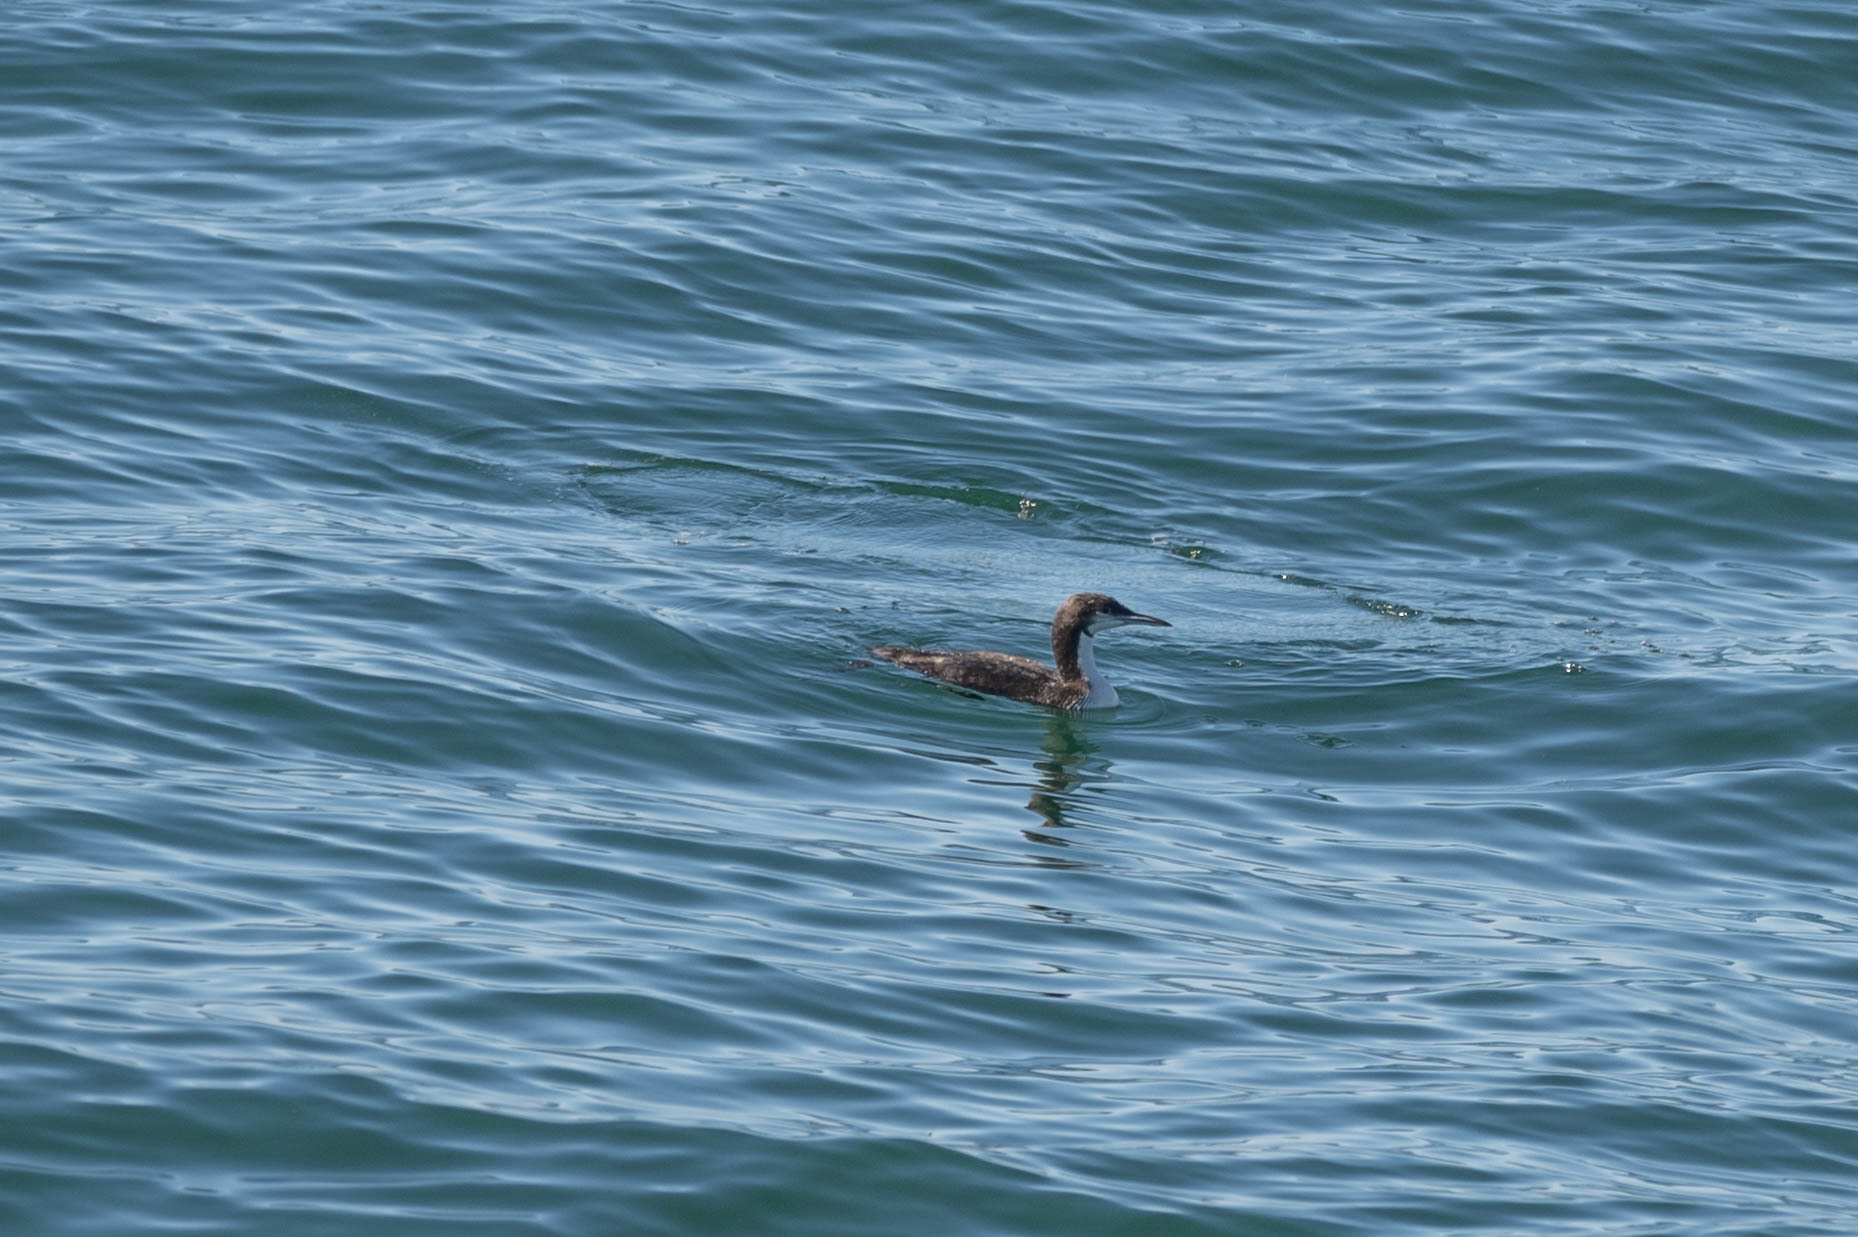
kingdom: Animalia
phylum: Chordata
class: Aves
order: Gaviiformes
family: Gaviidae
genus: Gavia
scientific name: Gavia pacifica
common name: Pacific loon
